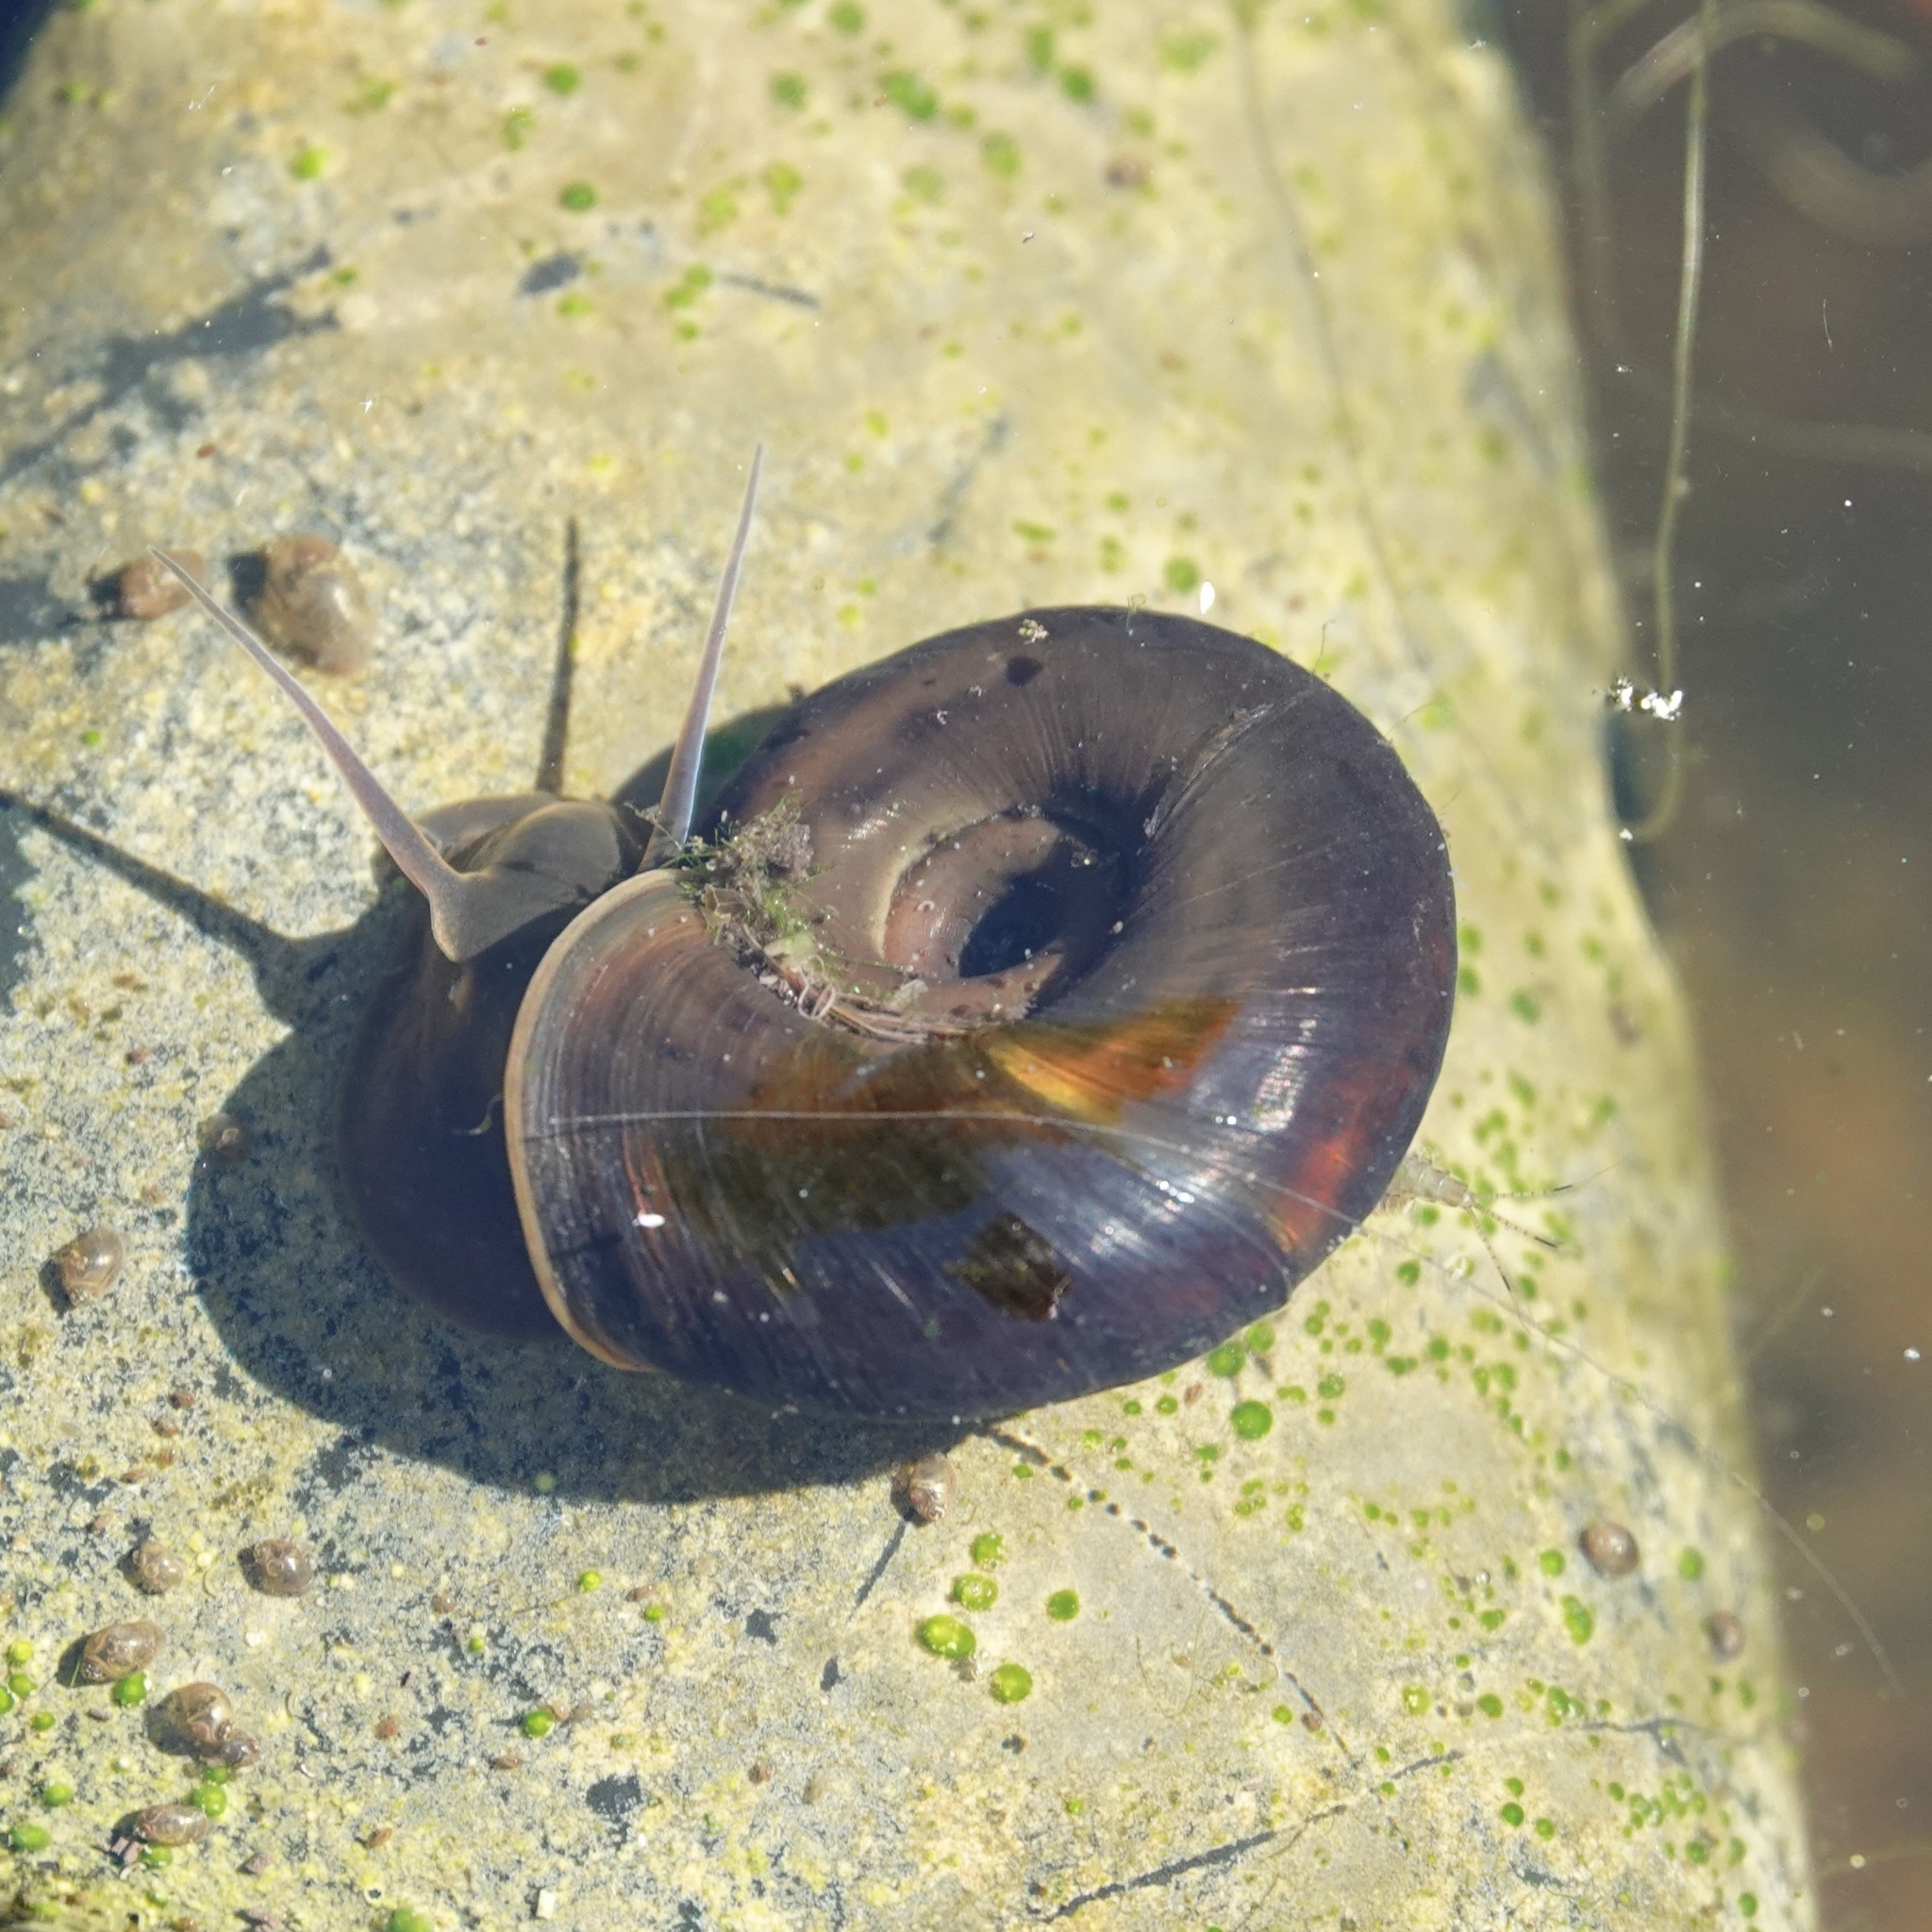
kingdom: Animalia
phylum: Mollusca
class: Gastropoda
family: Planorbidae
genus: Planorbarius
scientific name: Planorbarius corneus
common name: Great ramshorn
